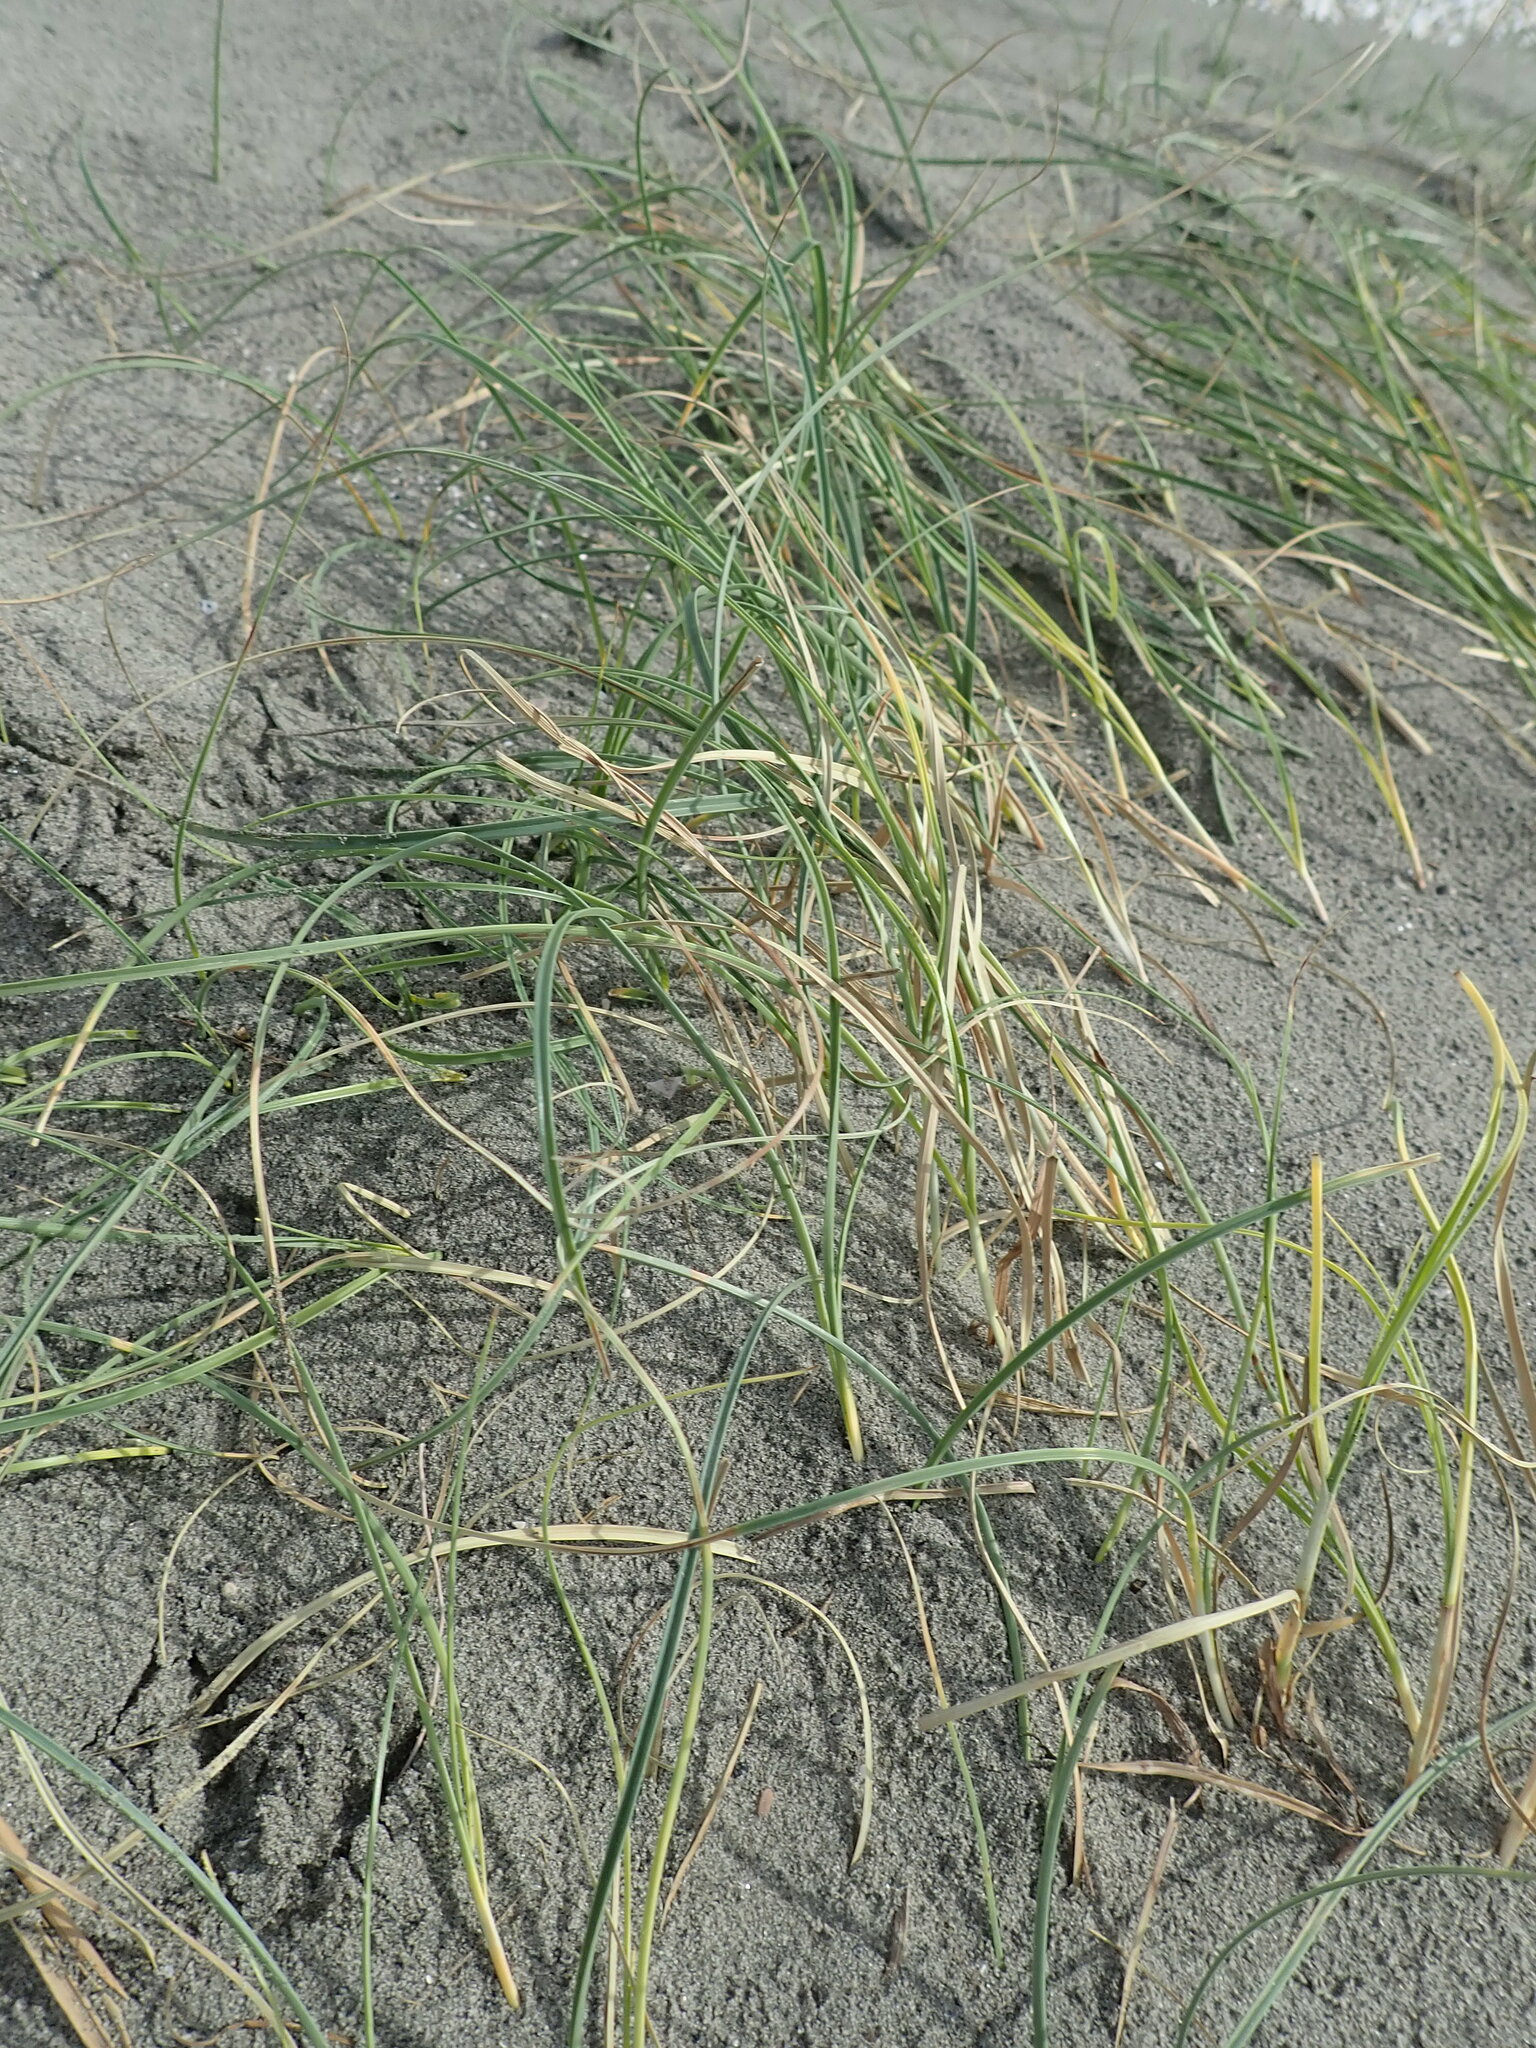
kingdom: Plantae
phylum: Tracheophyta
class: Liliopsida
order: Poales
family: Cyperaceae
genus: Carex
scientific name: Carex pumila
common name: Dwarf sedge
